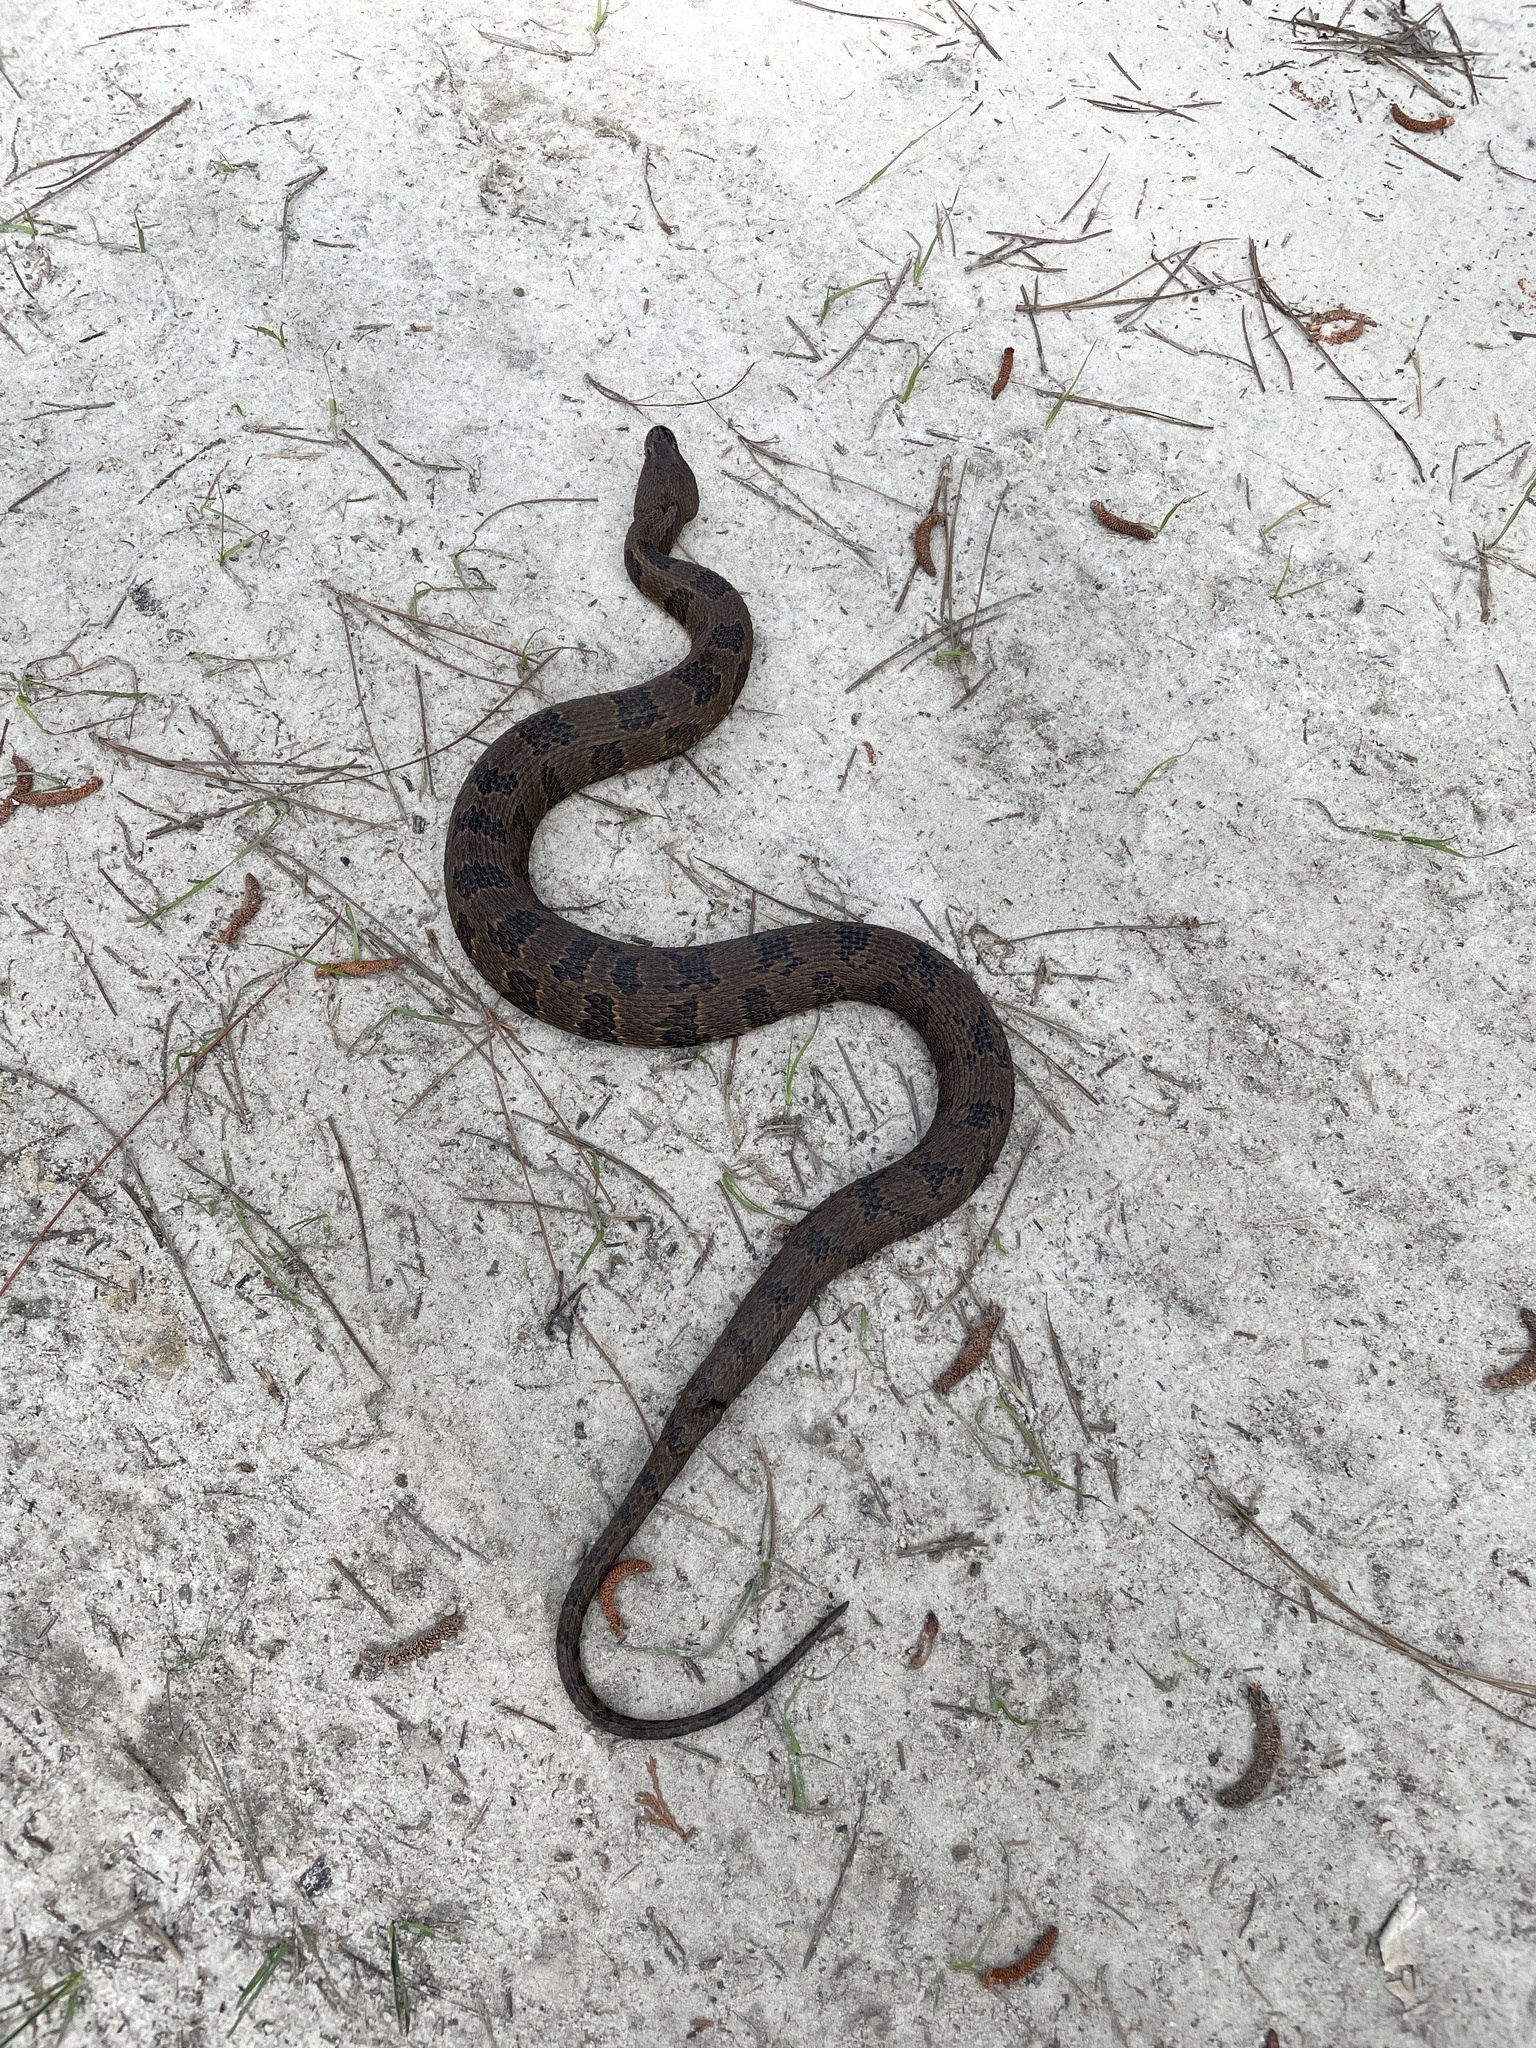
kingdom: Animalia
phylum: Chordata
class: Squamata
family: Colubridae
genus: Nerodia
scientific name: Nerodia taxispilota
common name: Brown water snake
